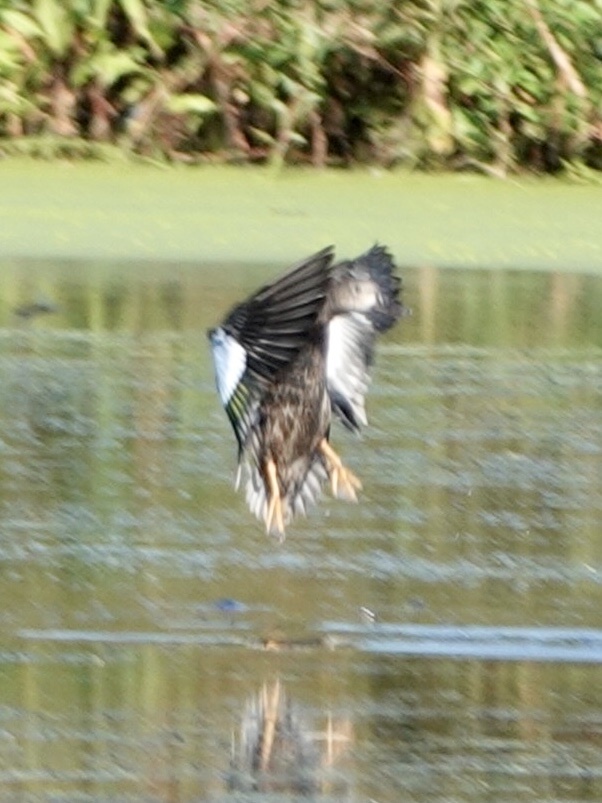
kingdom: Animalia
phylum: Chordata
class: Aves
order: Anseriformes
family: Anatidae
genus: Spatula
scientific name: Spatula discors
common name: Blue-winged teal
